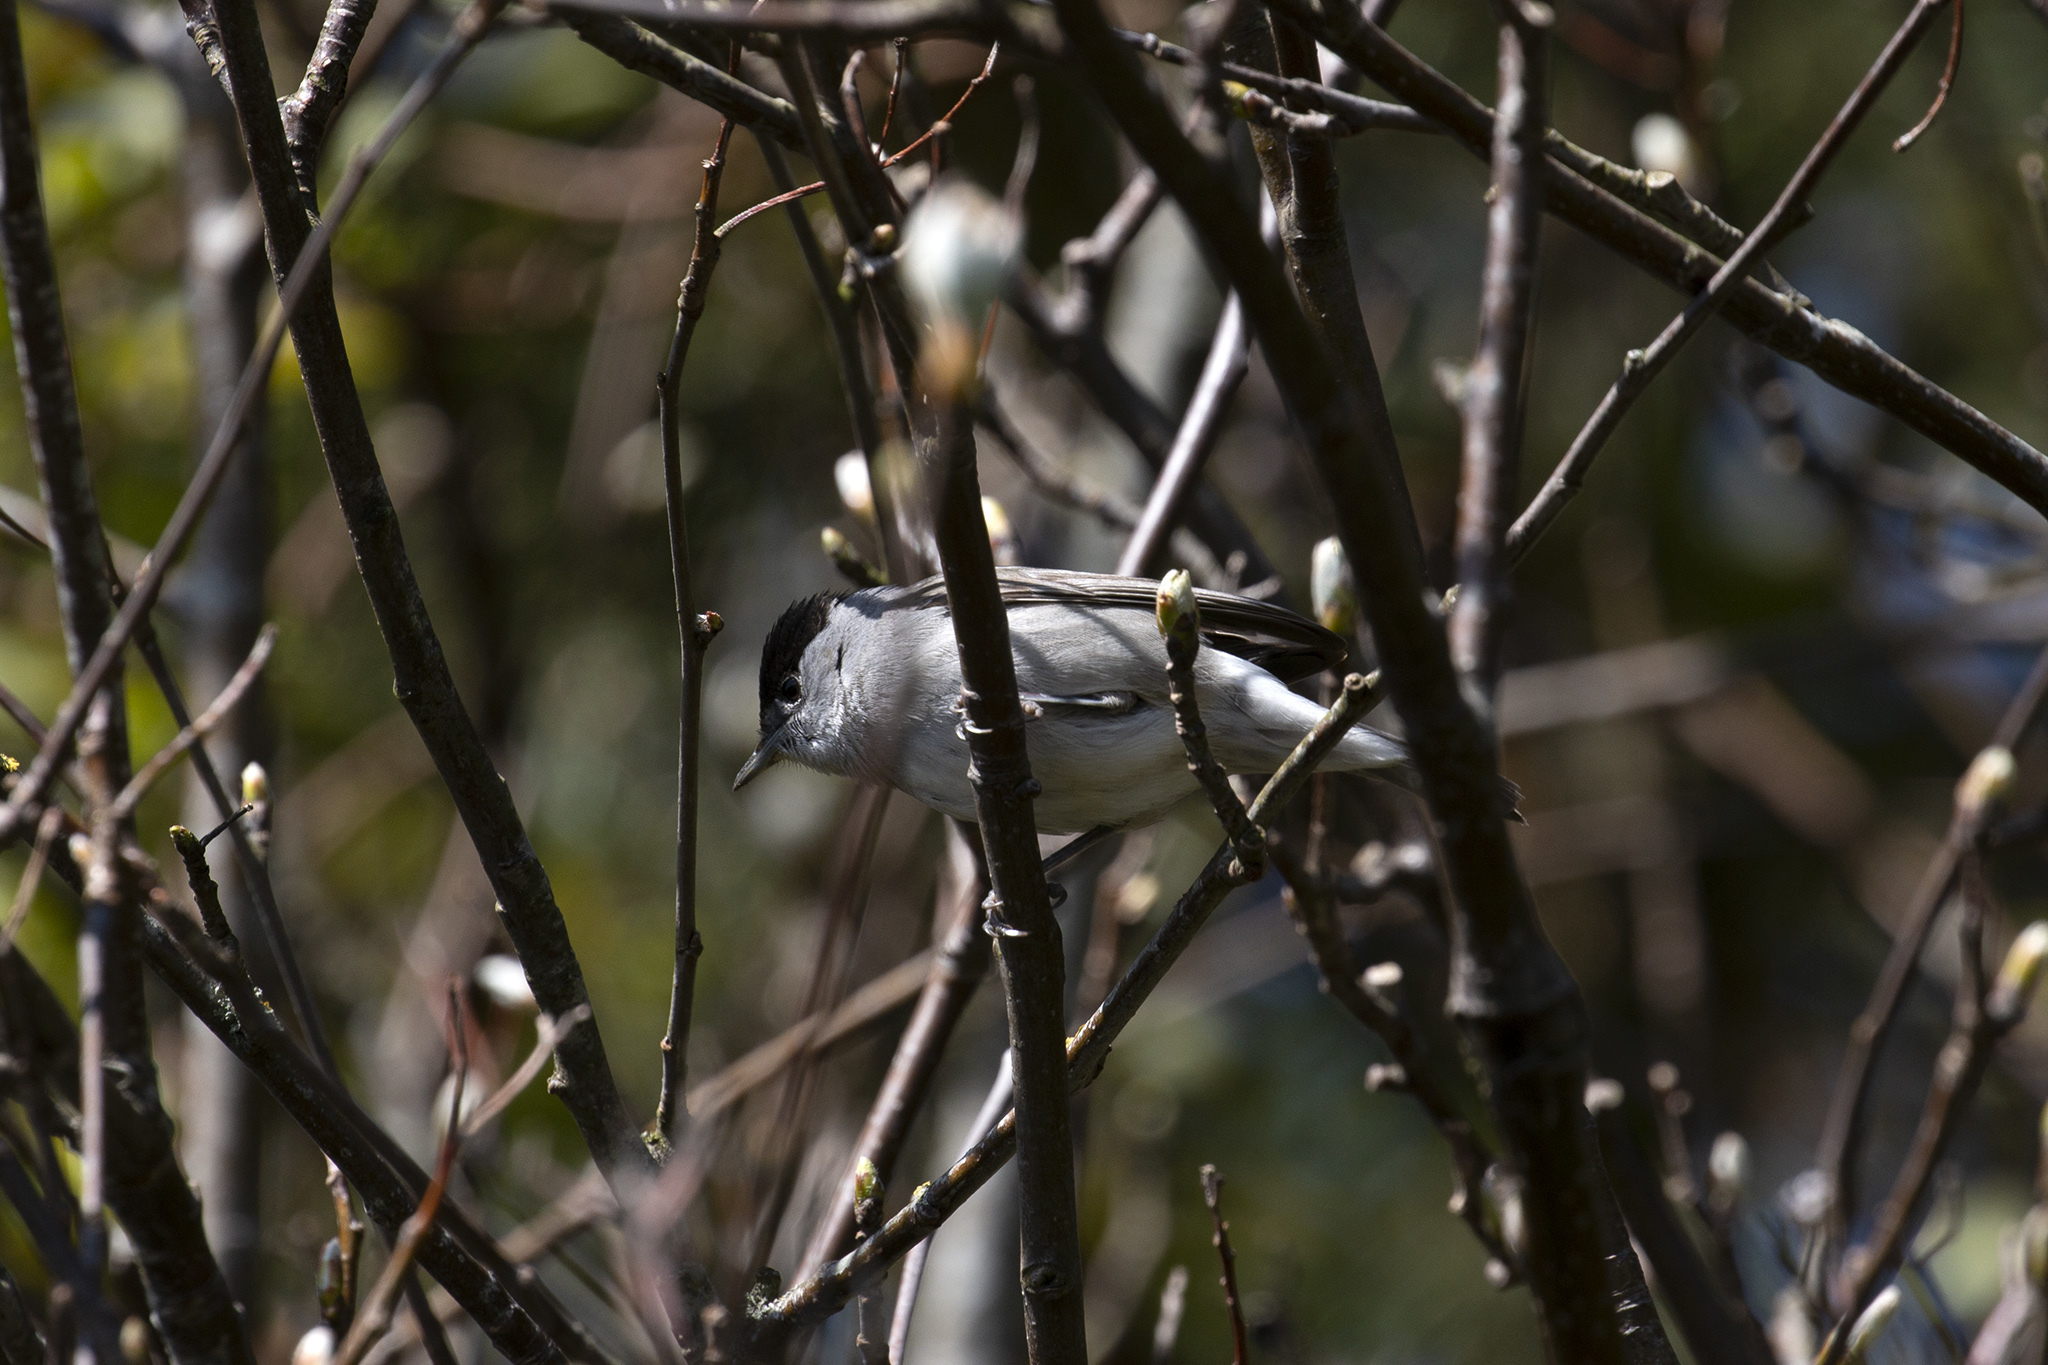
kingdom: Animalia
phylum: Chordata
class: Aves
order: Passeriformes
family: Sylviidae
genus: Sylvia
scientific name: Sylvia atricapilla
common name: Eurasian blackcap
